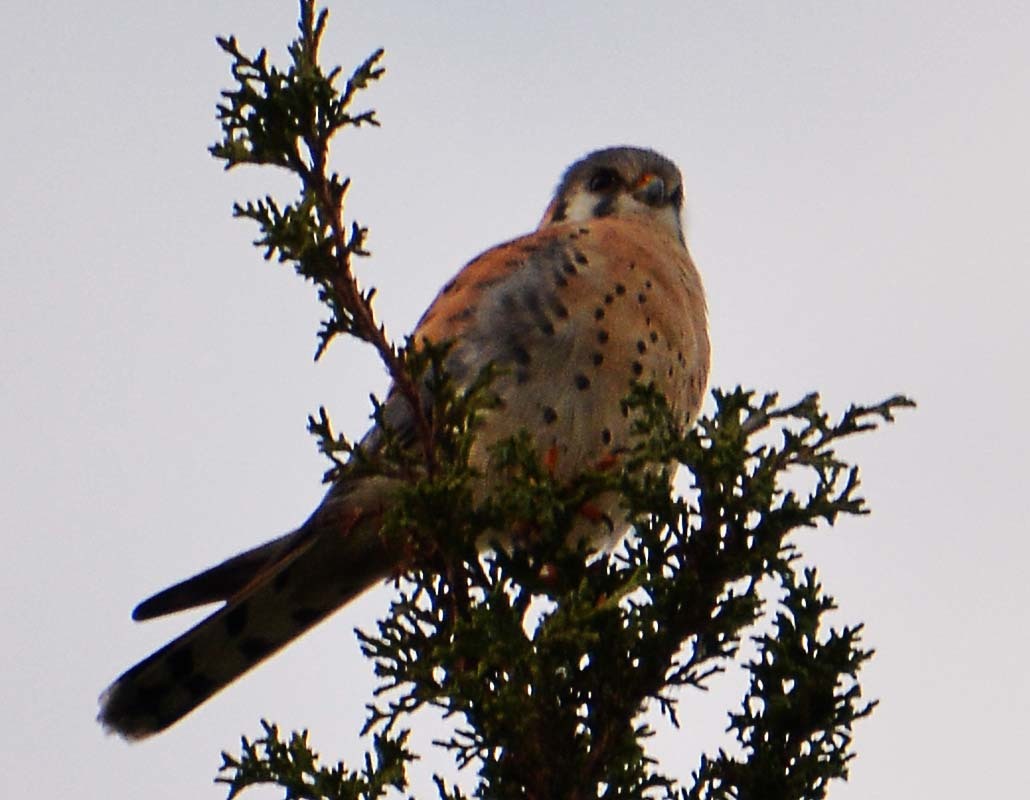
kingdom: Animalia
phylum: Chordata
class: Aves
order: Falconiformes
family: Falconidae
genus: Falco
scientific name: Falco sparverius
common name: American kestrel
